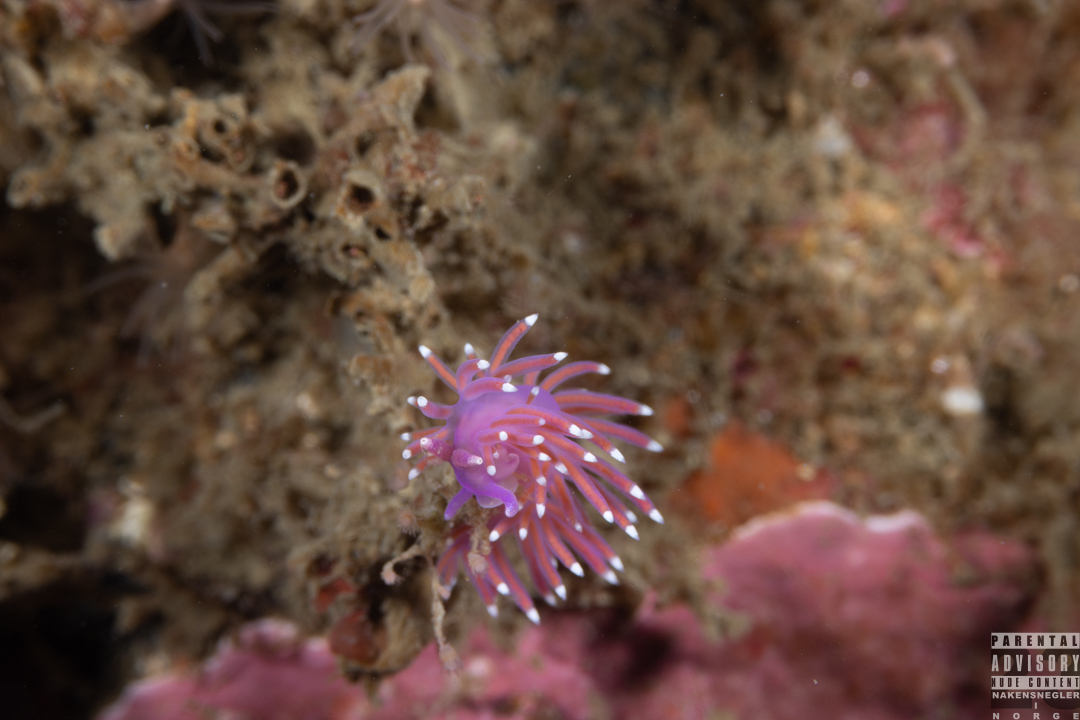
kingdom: Animalia
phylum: Mollusca
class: Gastropoda
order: Nudibranchia
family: Flabellinidae
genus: Edmundsella
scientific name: Edmundsella pedata
